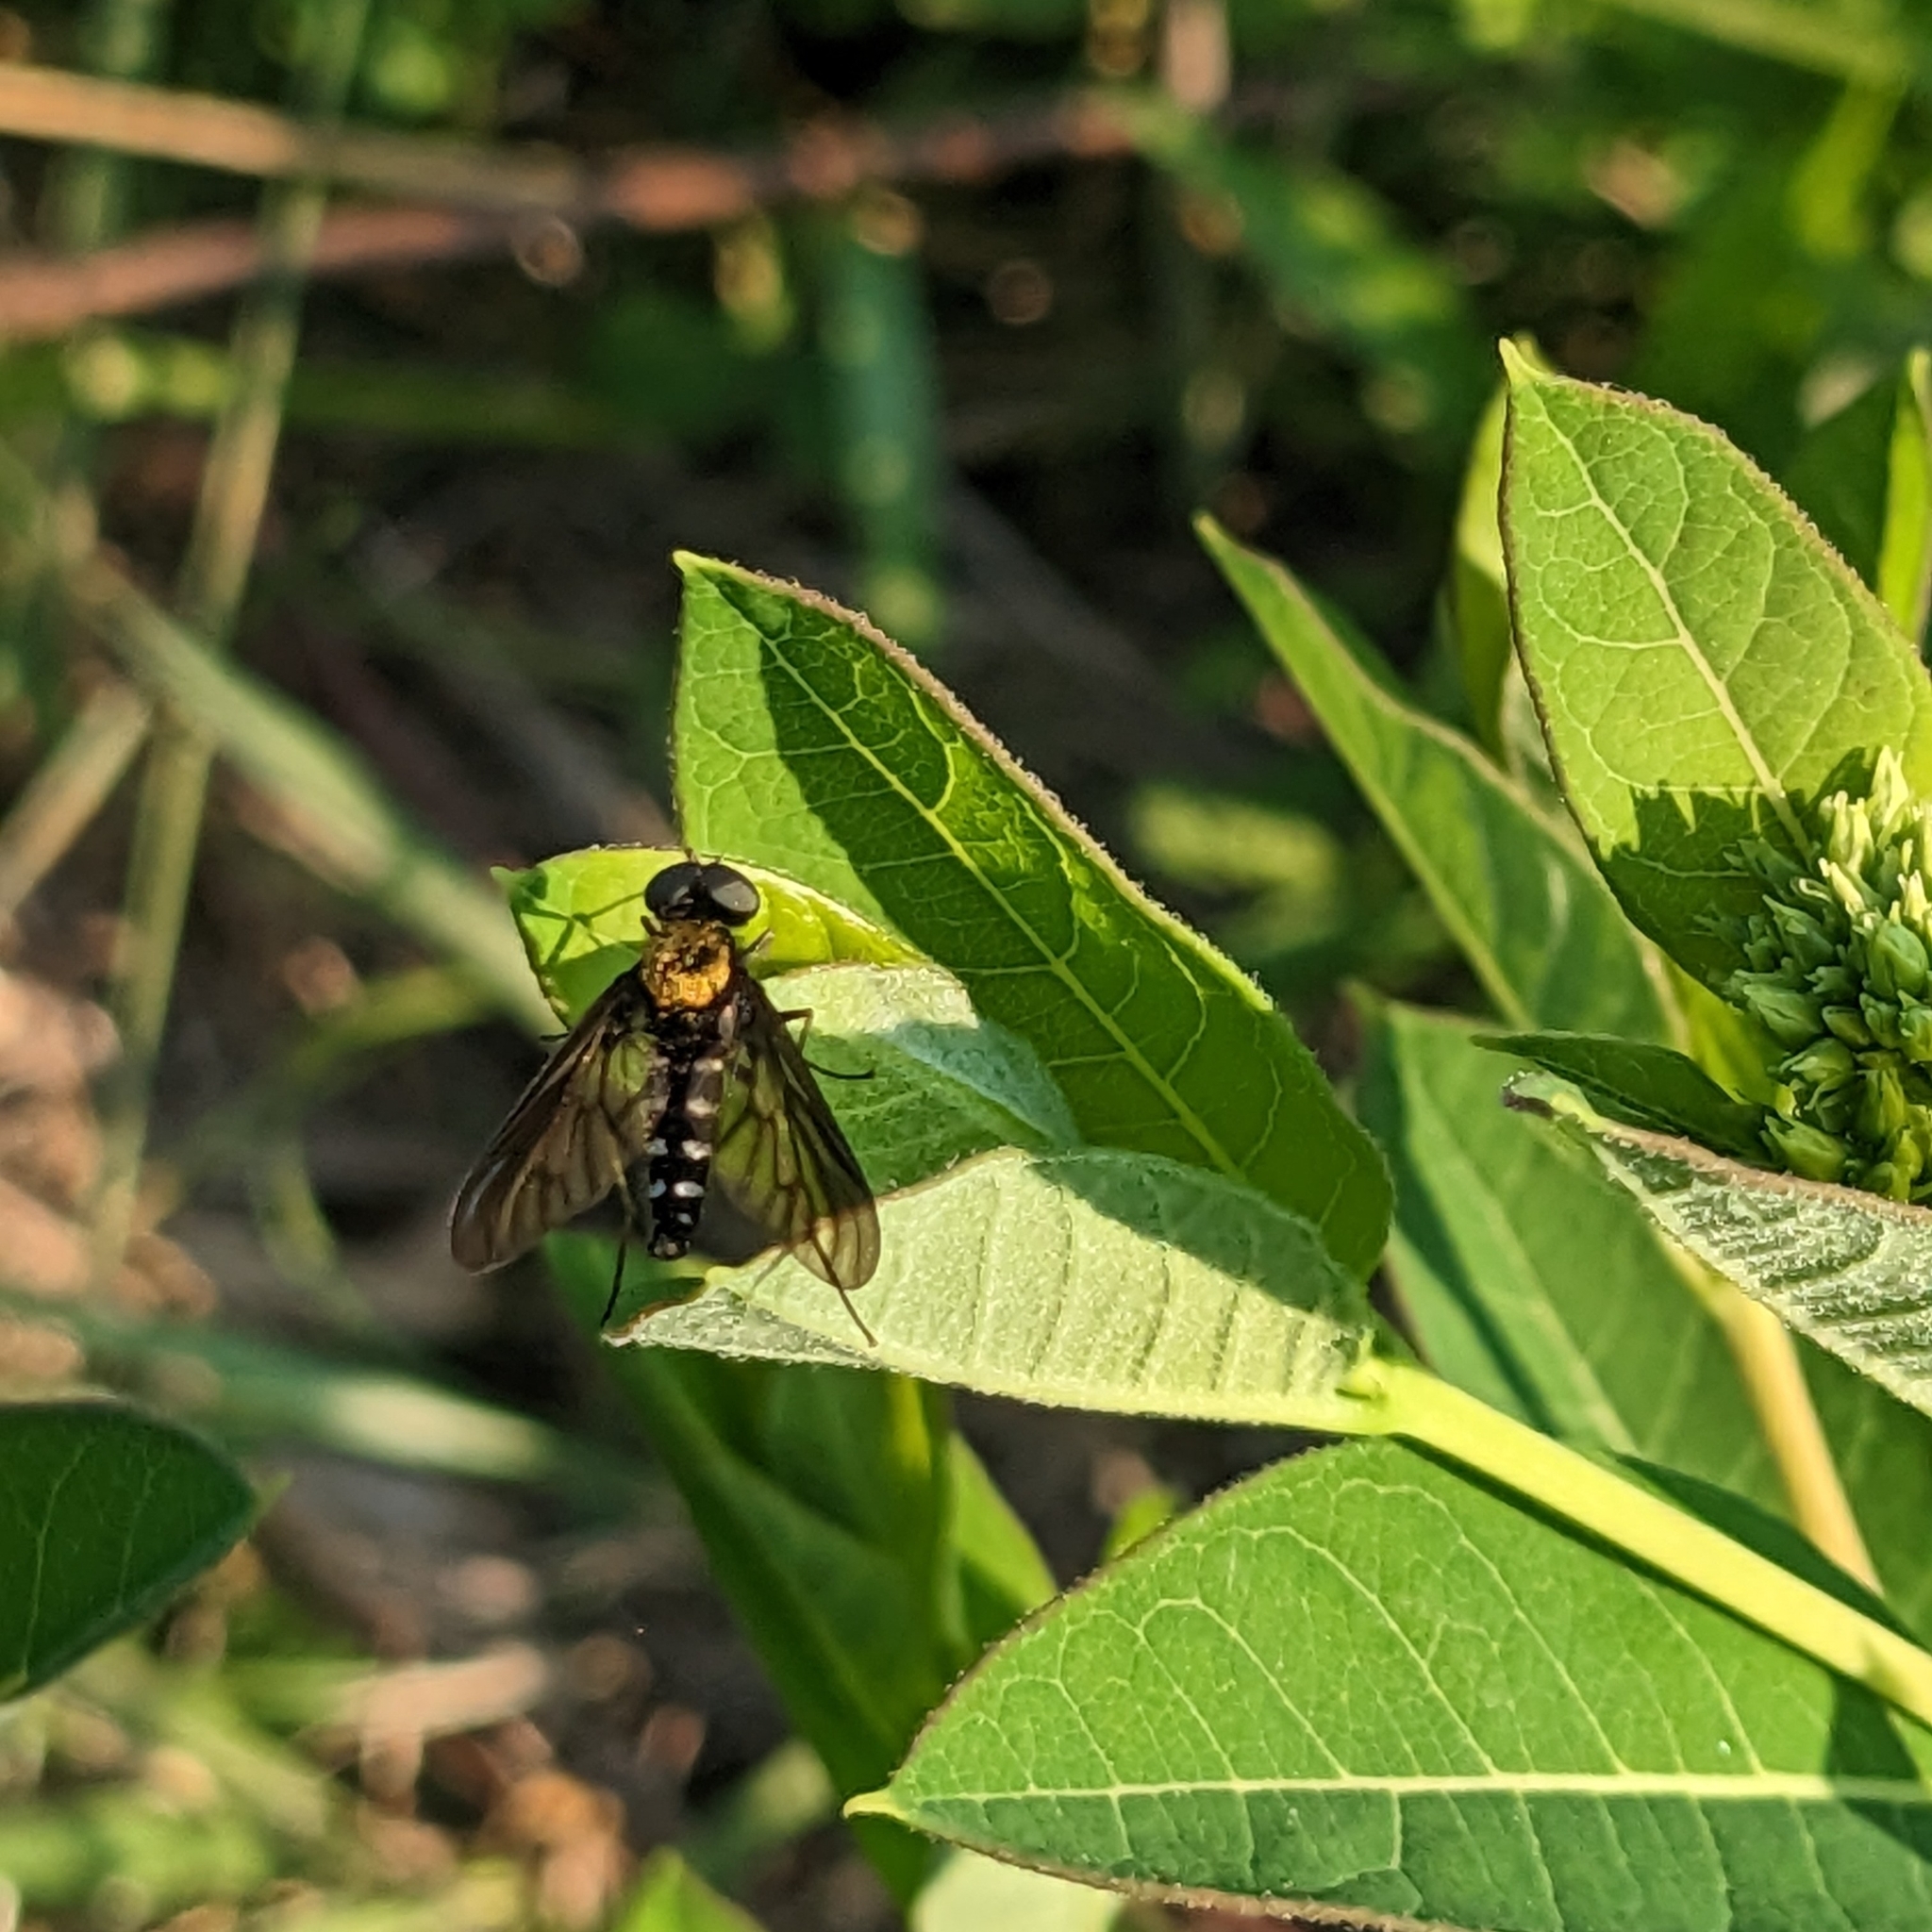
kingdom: Animalia
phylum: Arthropoda
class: Insecta
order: Diptera
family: Rhagionidae
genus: Chrysopilus
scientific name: Chrysopilus thoracicus
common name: Golden-backed snipe fly
